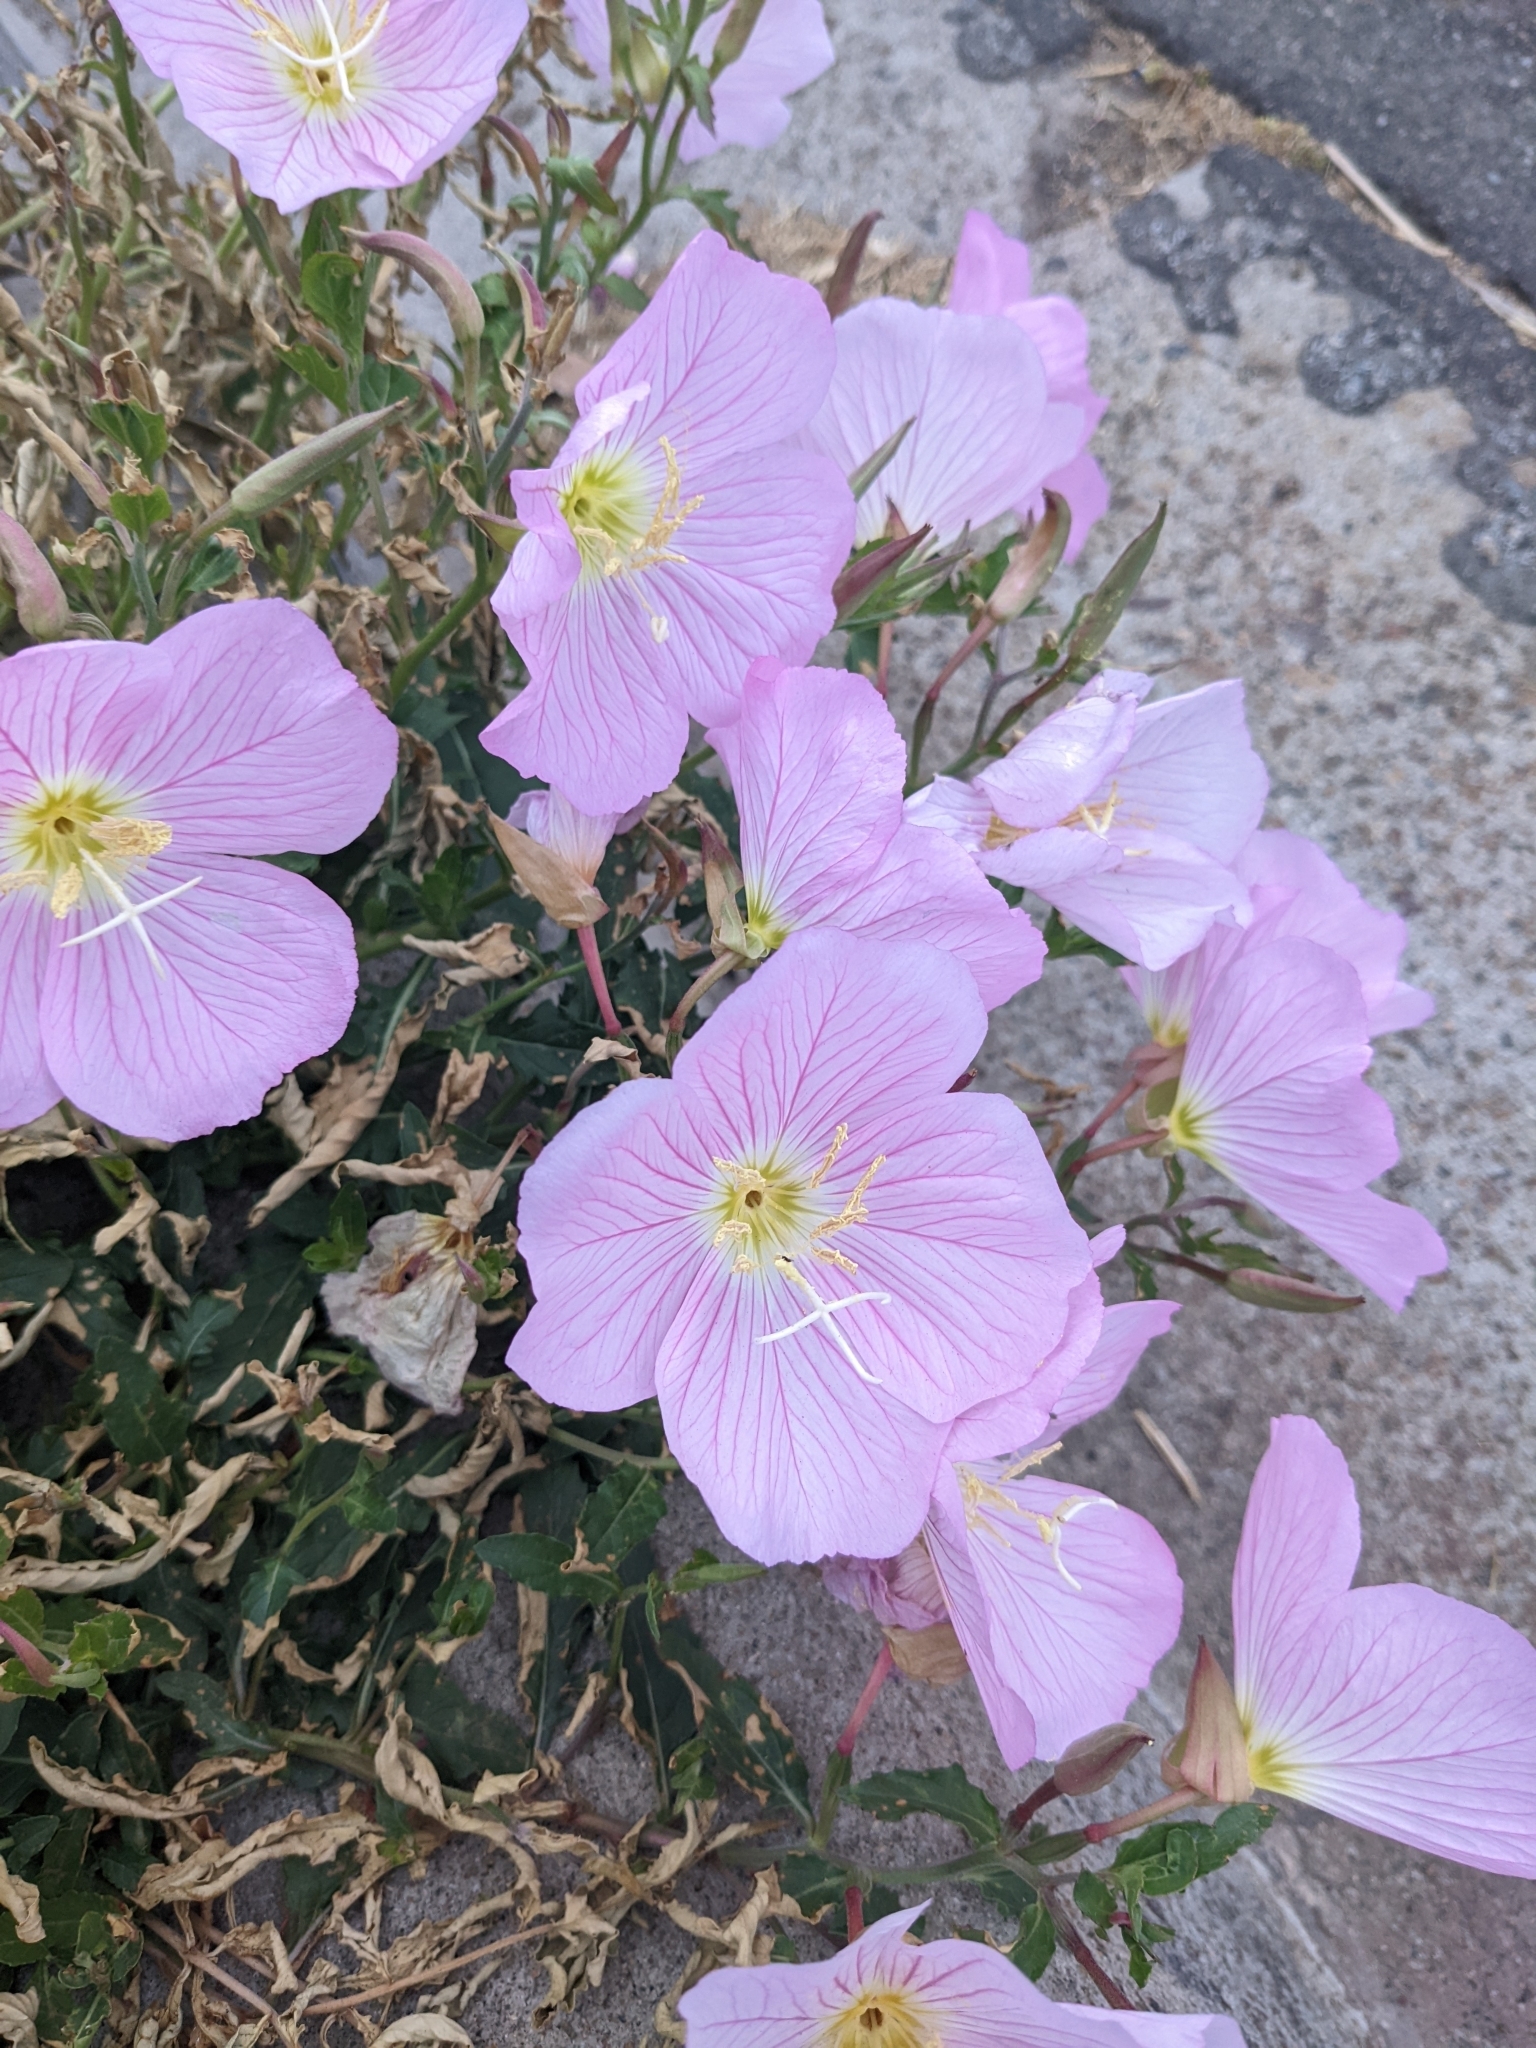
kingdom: Plantae
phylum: Tracheophyta
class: Magnoliopsida
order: Myrtales
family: Onagraceae
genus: Oenothera
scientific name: Oenothera speciosa
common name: White evening-primrose
